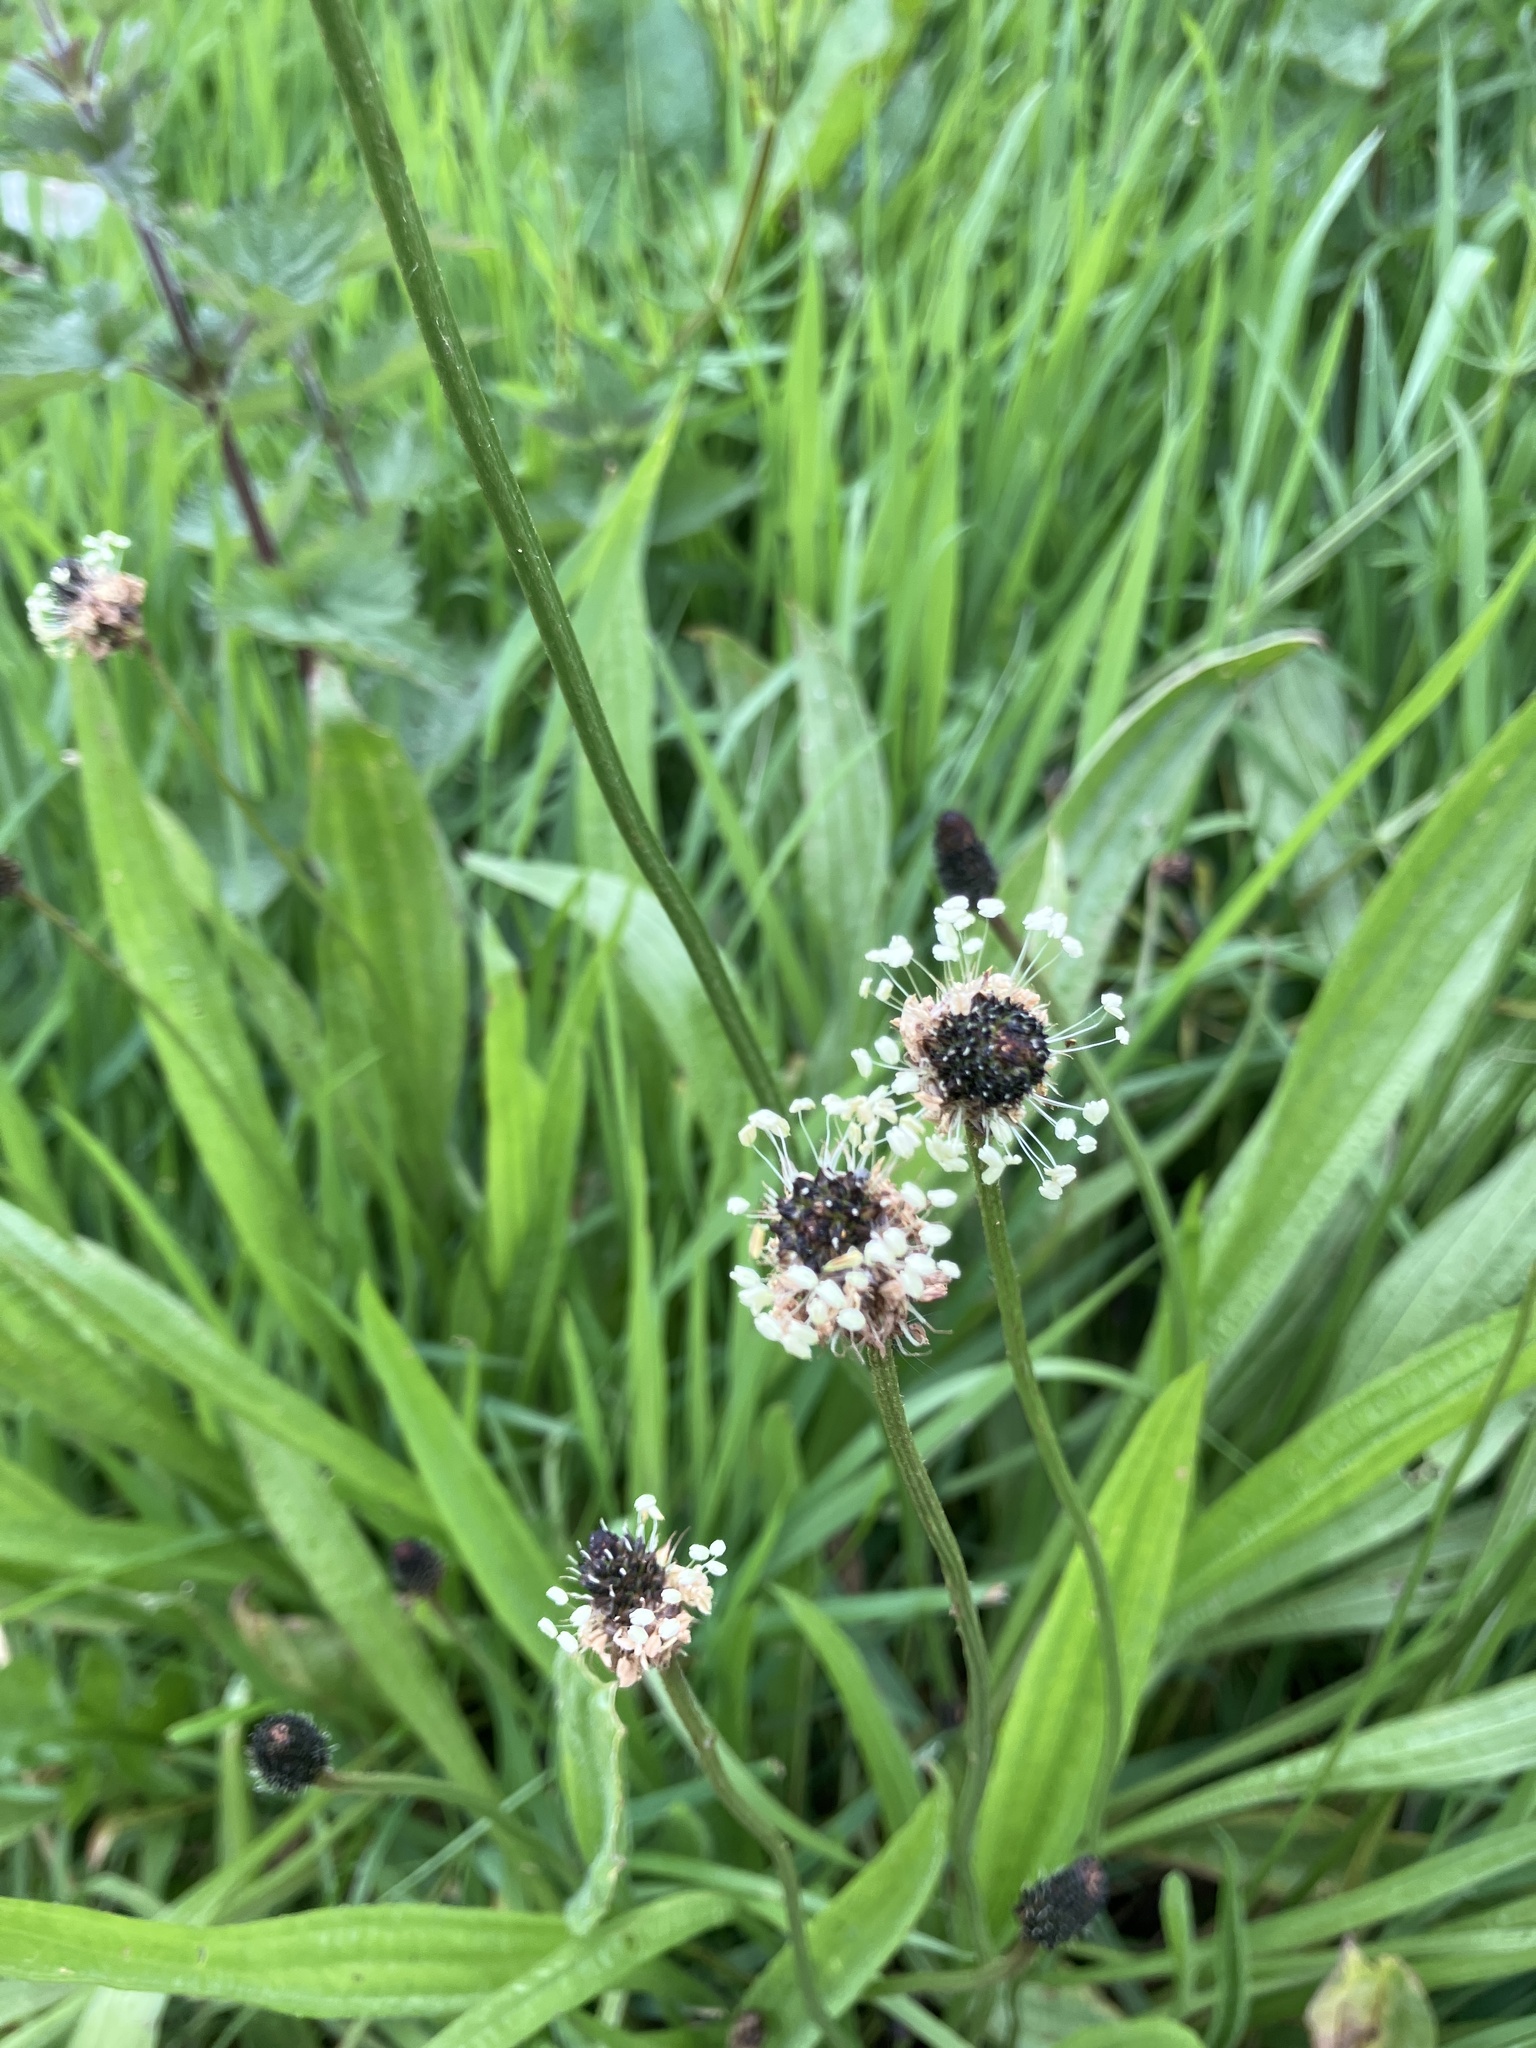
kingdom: Plantae
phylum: Tracheophyta
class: Magnoliopsida
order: Lamiales
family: Plantaginaceae
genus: Plantago
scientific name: Plantago lanceolata
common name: Ribwort plantain
